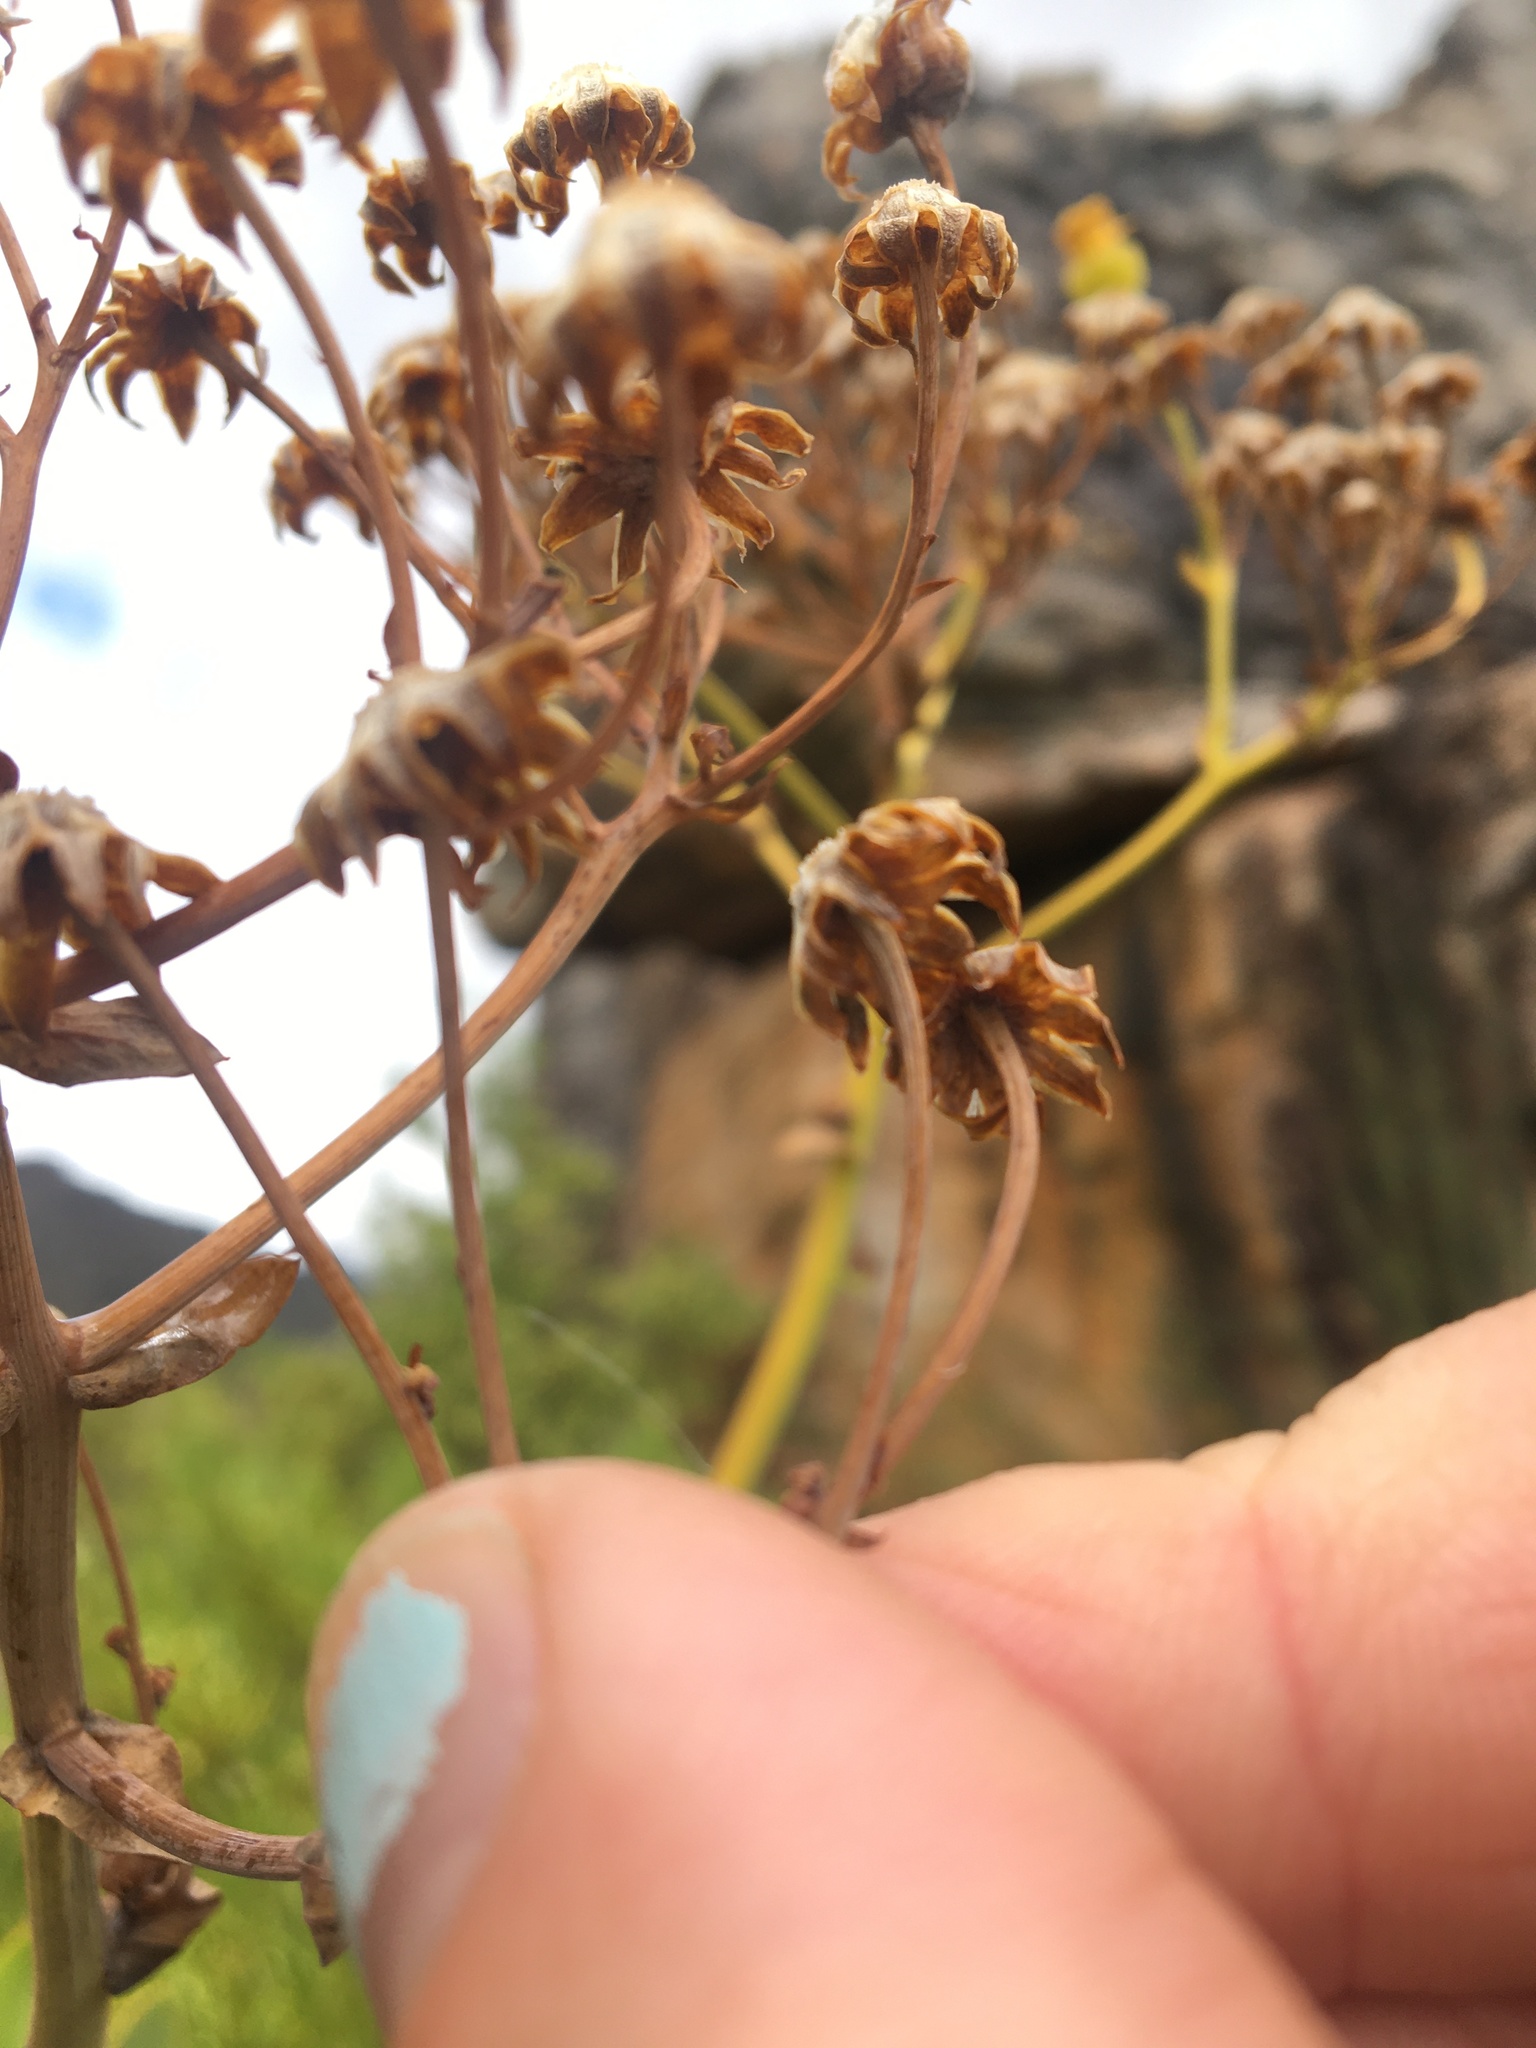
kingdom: Plantae
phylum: Tracheophyta
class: Magnoliopsida
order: Asterales
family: Asteraceae
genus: Othonna
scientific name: Othonna parviflora
